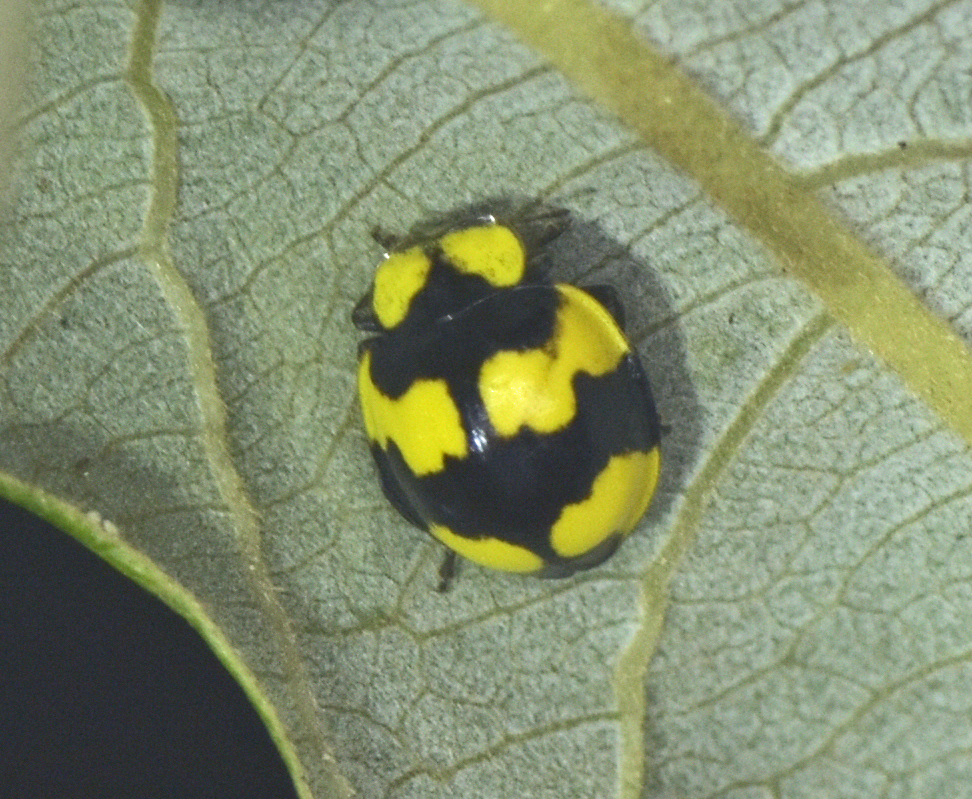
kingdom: Animalia
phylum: Arthropoda
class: Insecta
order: Coleoptera
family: Coccinellidae
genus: Illeis
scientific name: Illeis galbula
